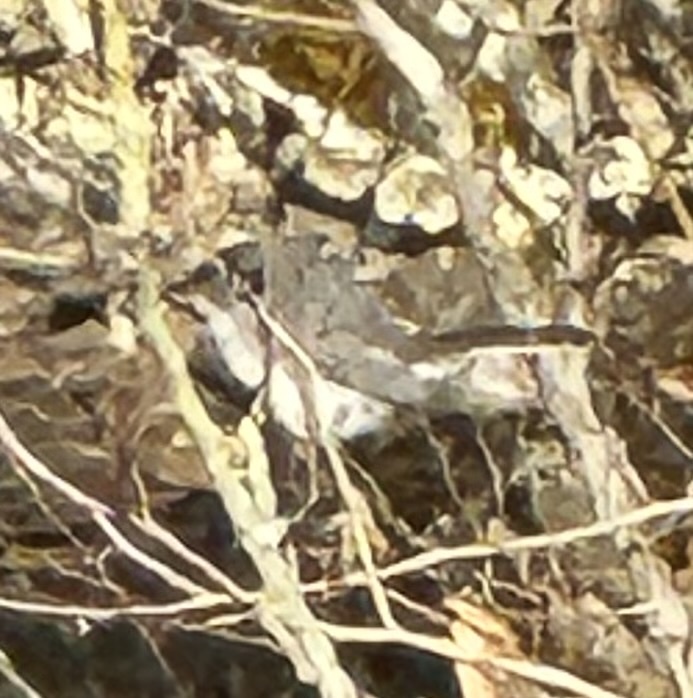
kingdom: Animalia
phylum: Chordata
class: Aves
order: Passeriformes
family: Polioptilidae
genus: Polioptila
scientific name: Polioptila caerulea
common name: Blue-gray gnatcatcher
